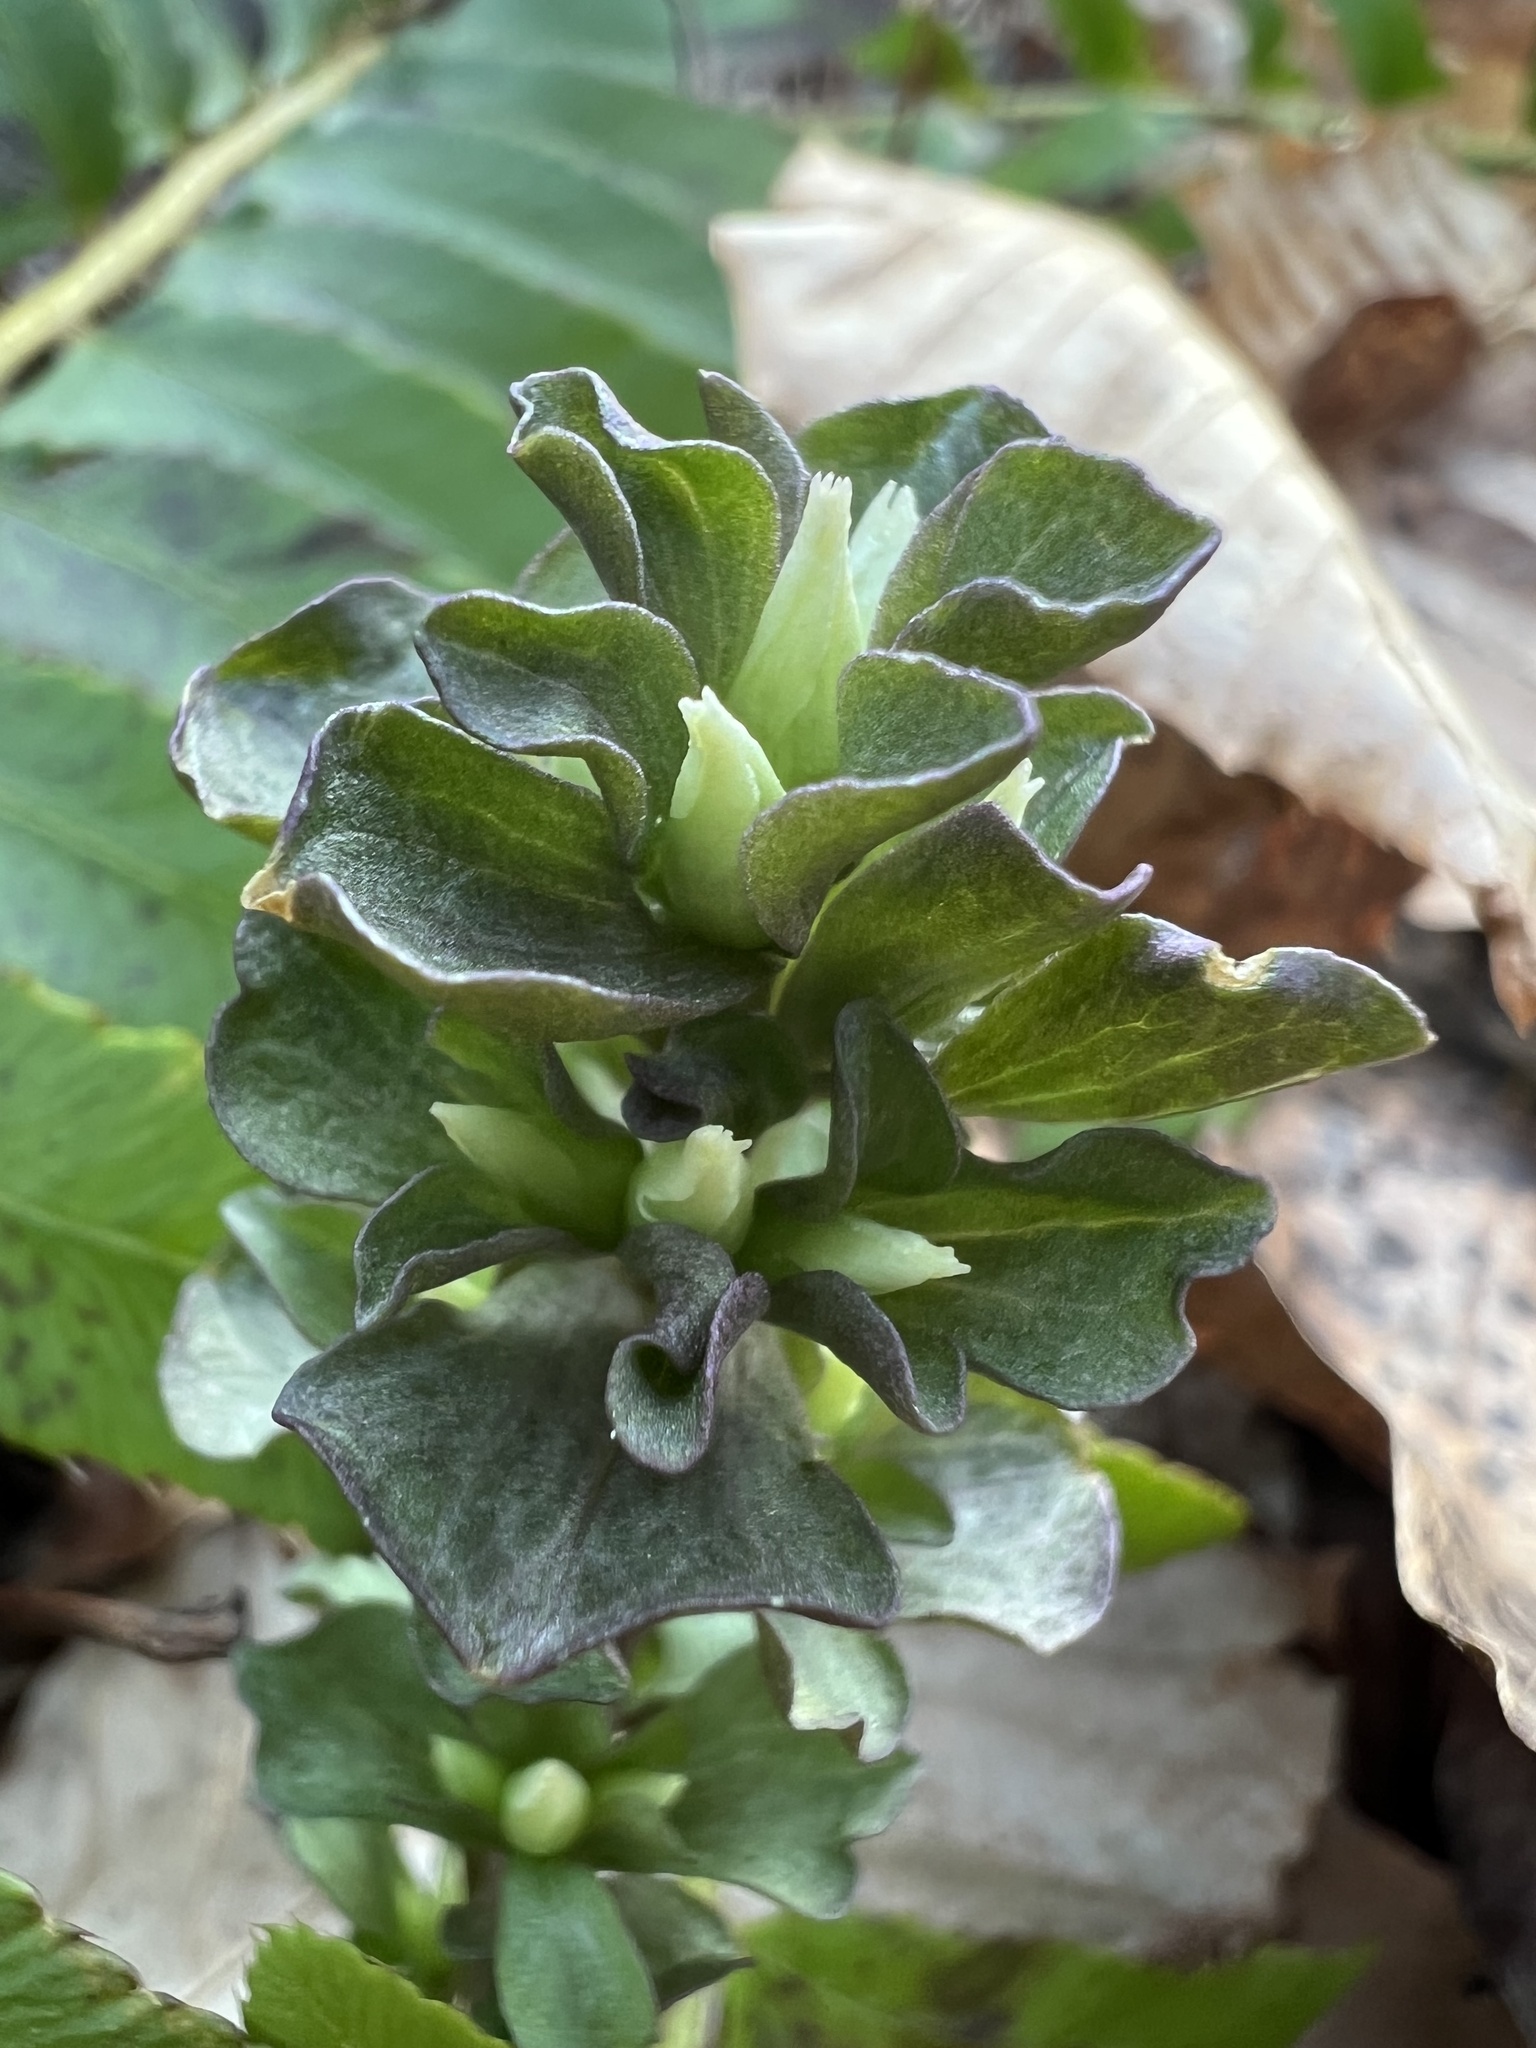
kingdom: Plantae
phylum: Tracheophyta
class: Magnoliopsida
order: Gentianales
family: Gentianaceae
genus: Obolaria
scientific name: Obolaria virginica
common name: Pennywort
